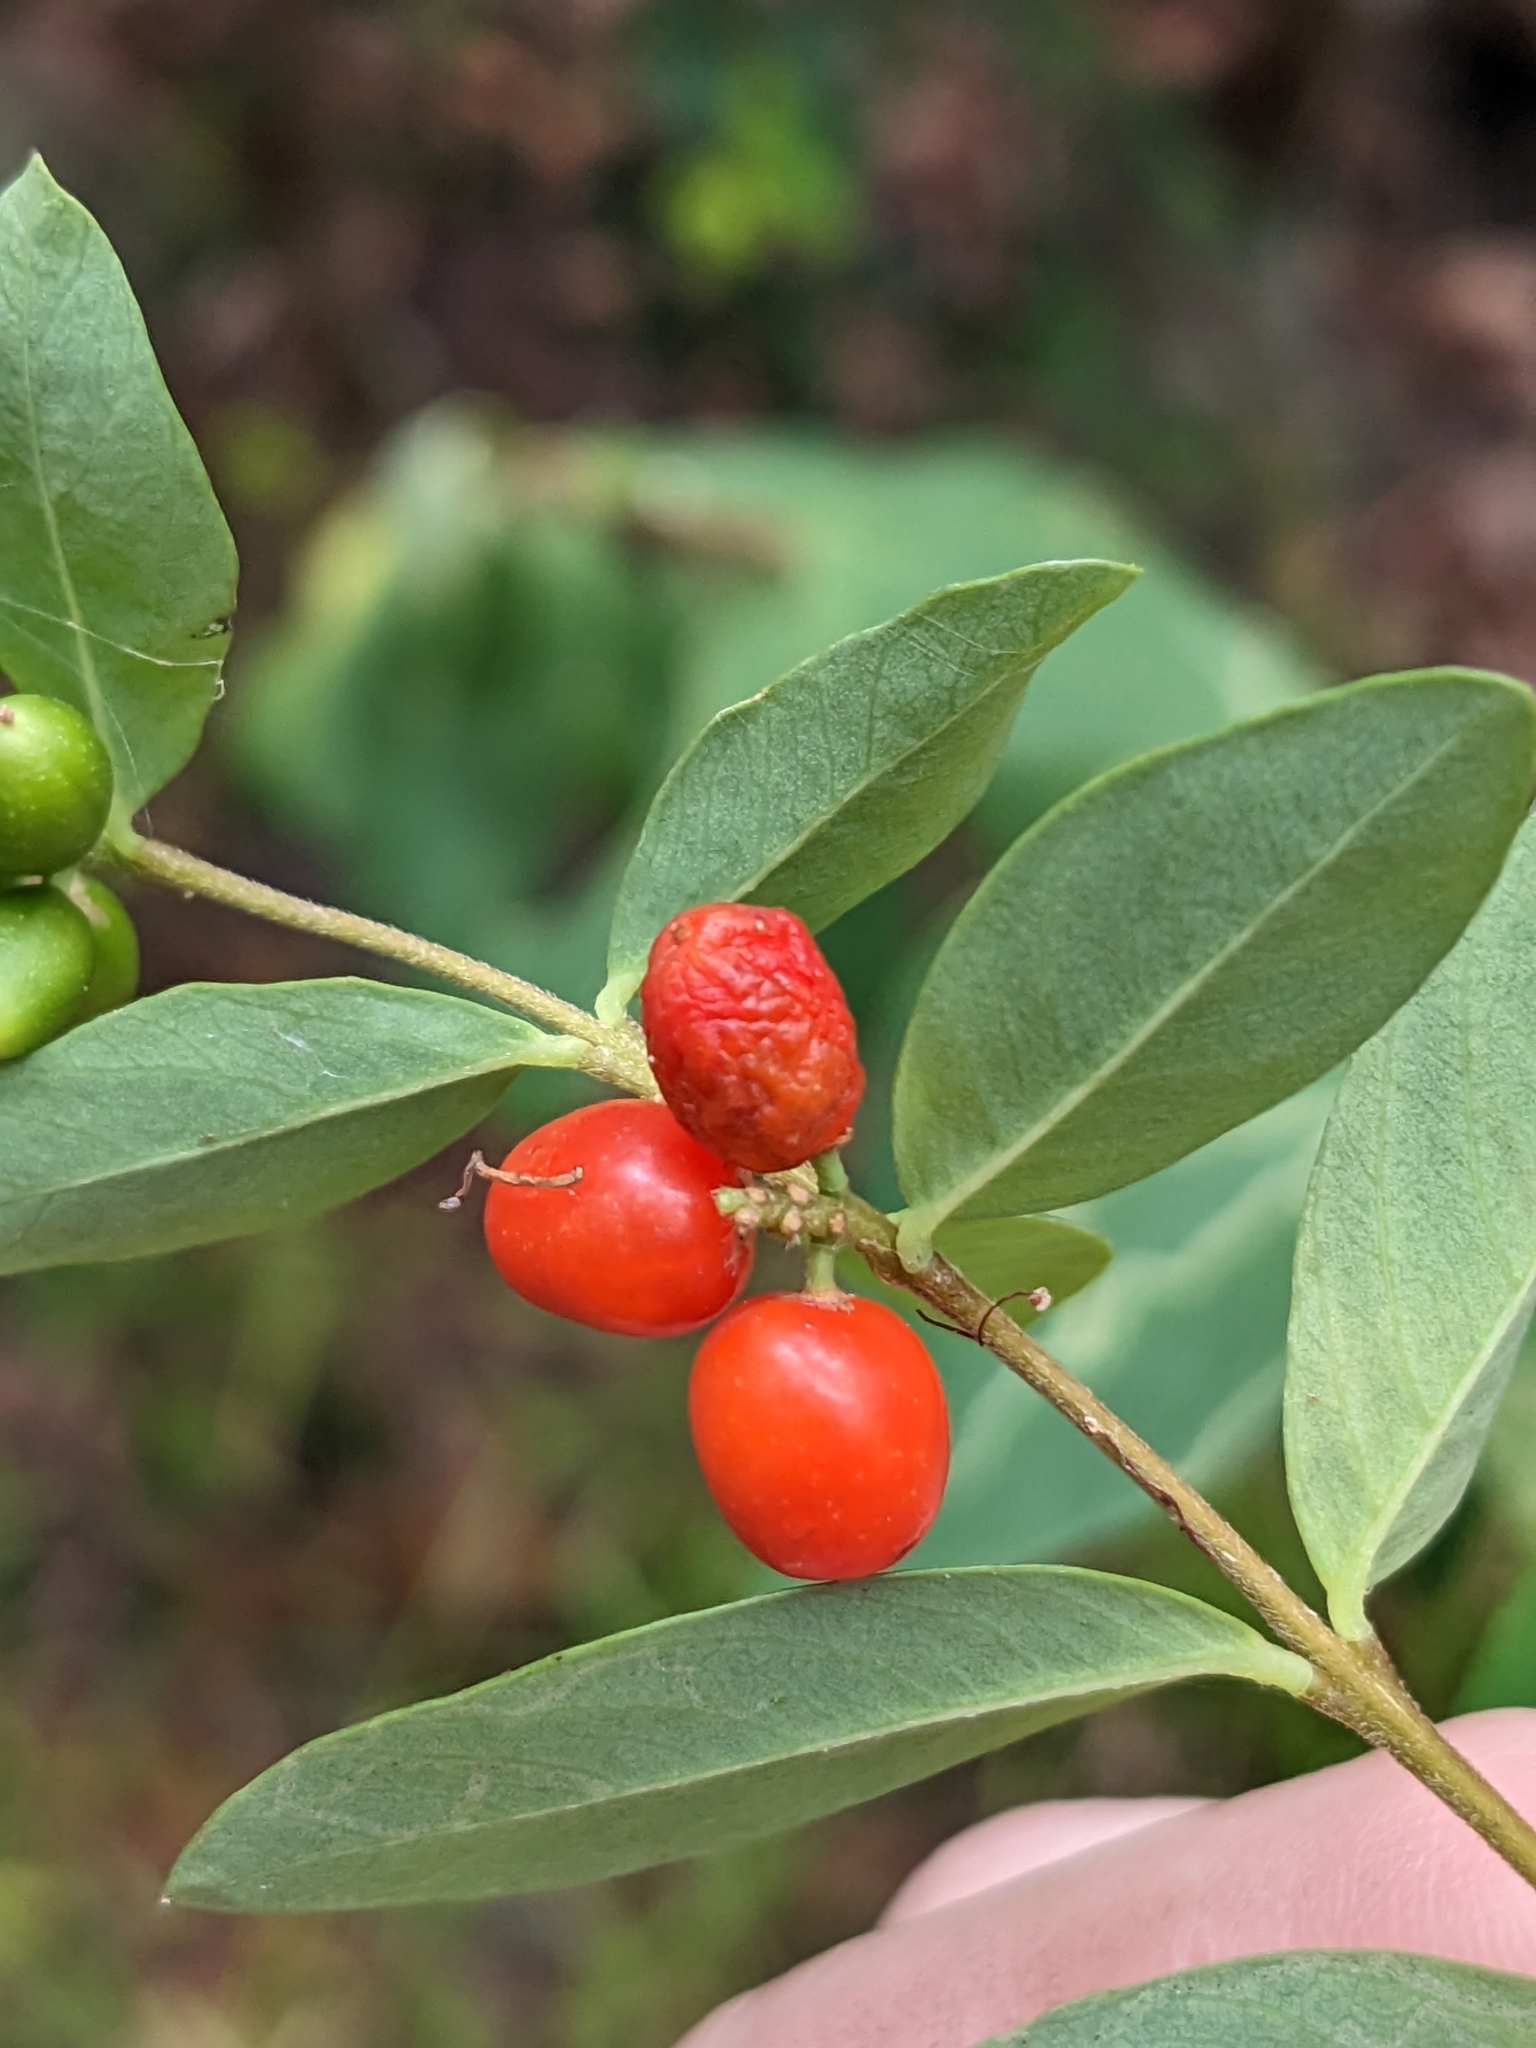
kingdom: Plantae
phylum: Tracheophyta
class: Magnoliopsida
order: Malvales
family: Thymelaeaceae
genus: Wikstroemia
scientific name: Wikstroemia indica
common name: Tiebush
